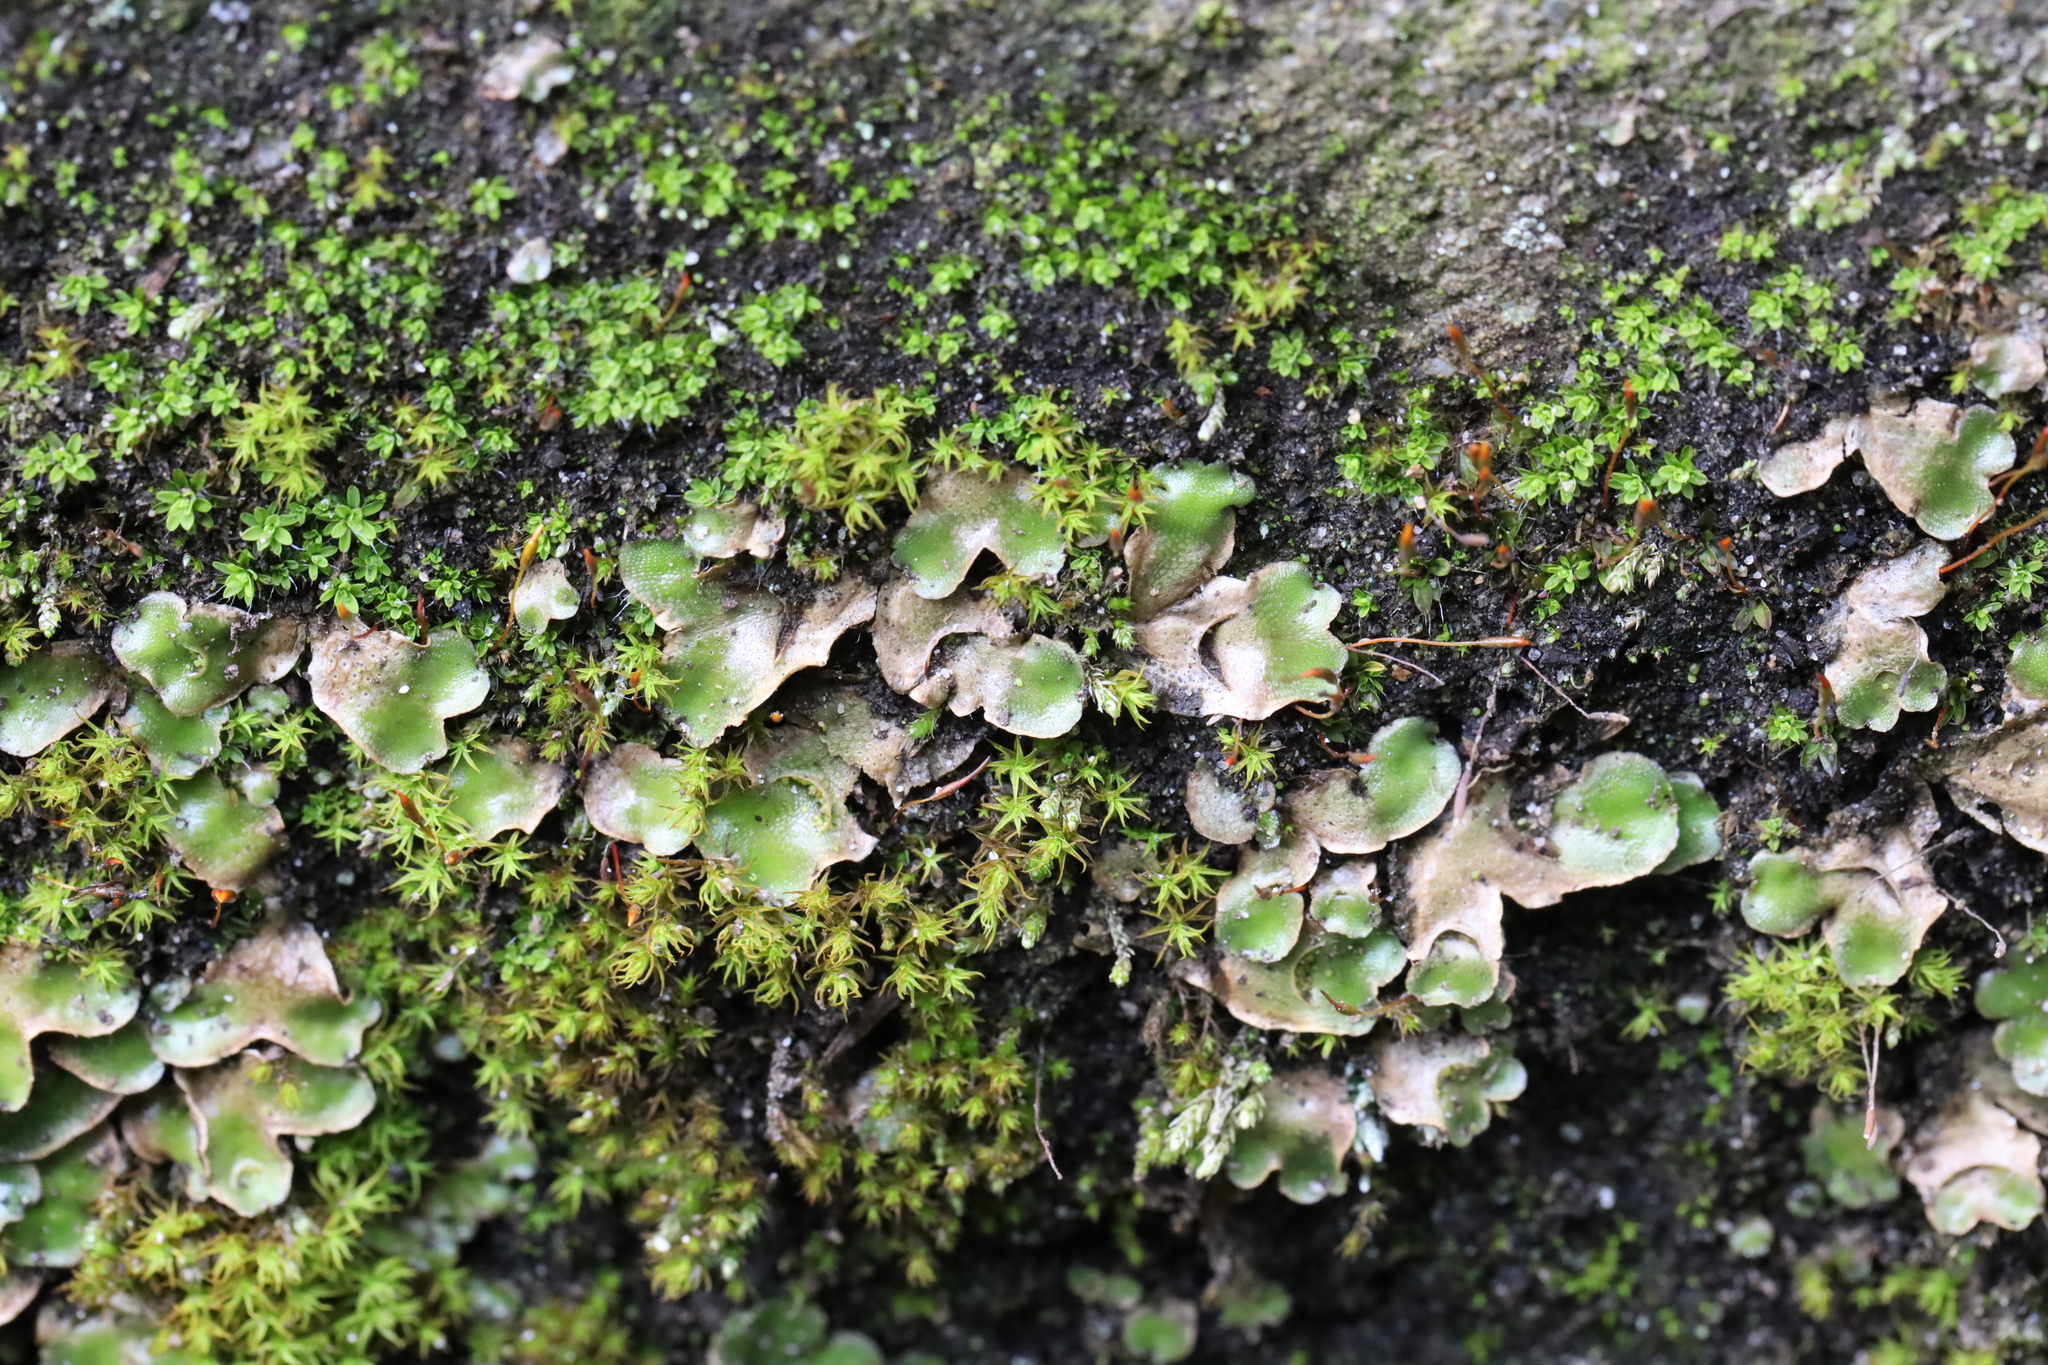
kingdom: Plantae
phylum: Marchantiophyta
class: Marchantiopsida
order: Lunulariales
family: Lunulariaceae
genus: Lunularia
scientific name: Lunularia cruciata
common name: Crescent-cup liverwort
